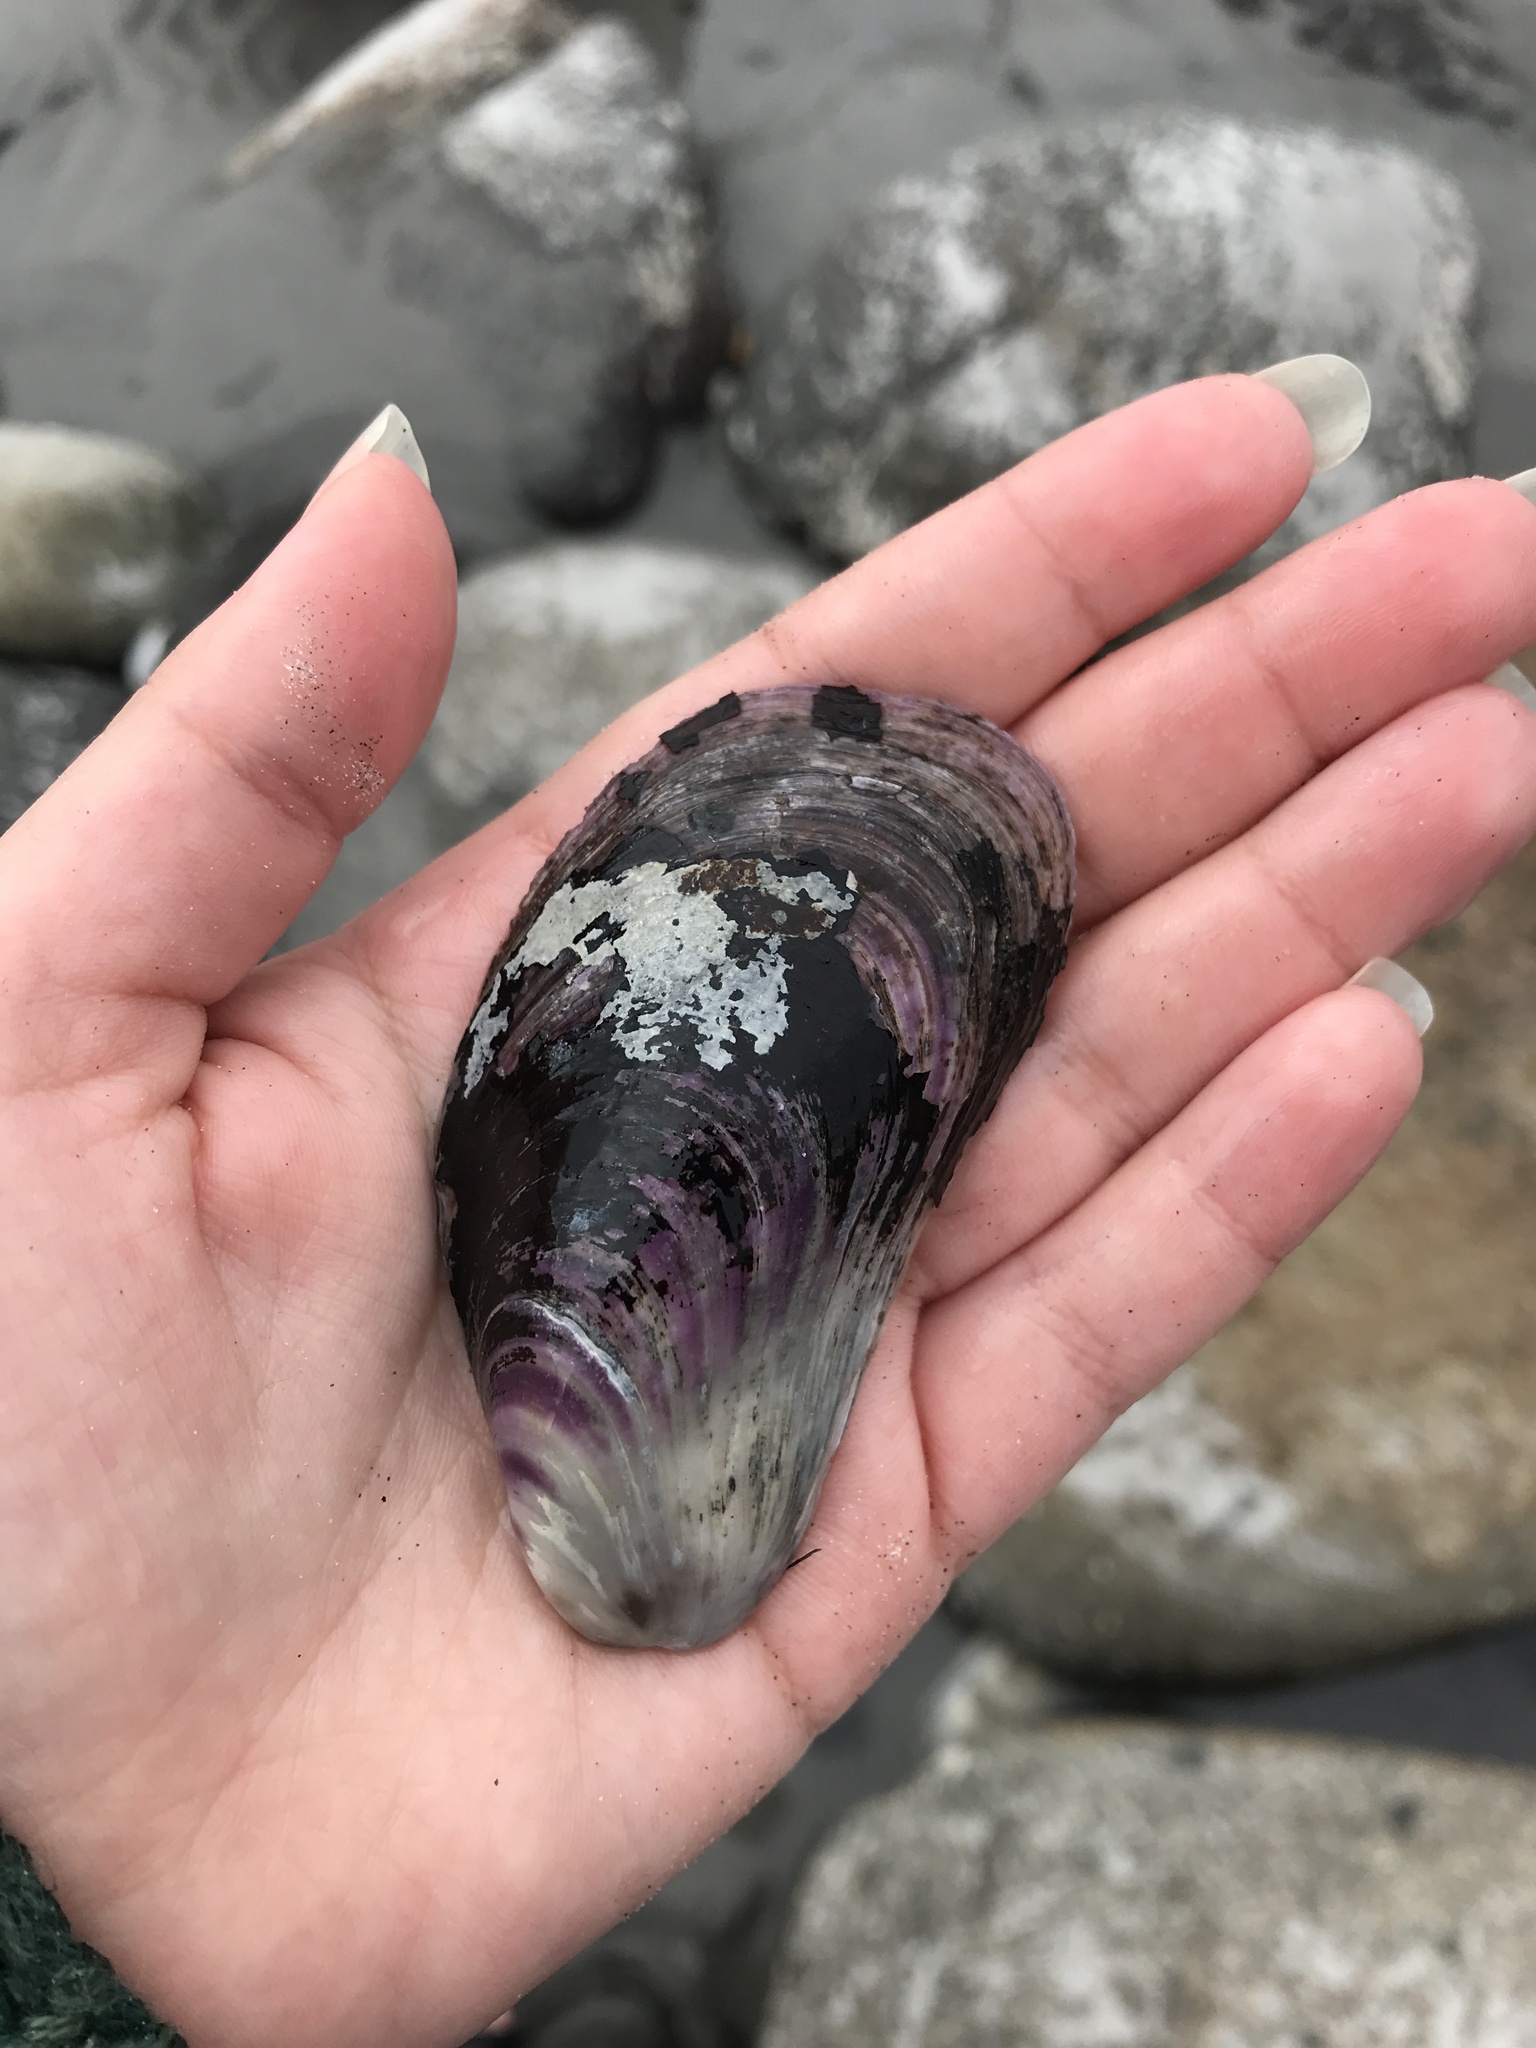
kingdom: Animalia
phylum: Mollusca
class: Bivalvia
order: Mytilida
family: Mytilidae
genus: Modiolus
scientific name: Modiolus modiolus
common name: Horse-mussel
